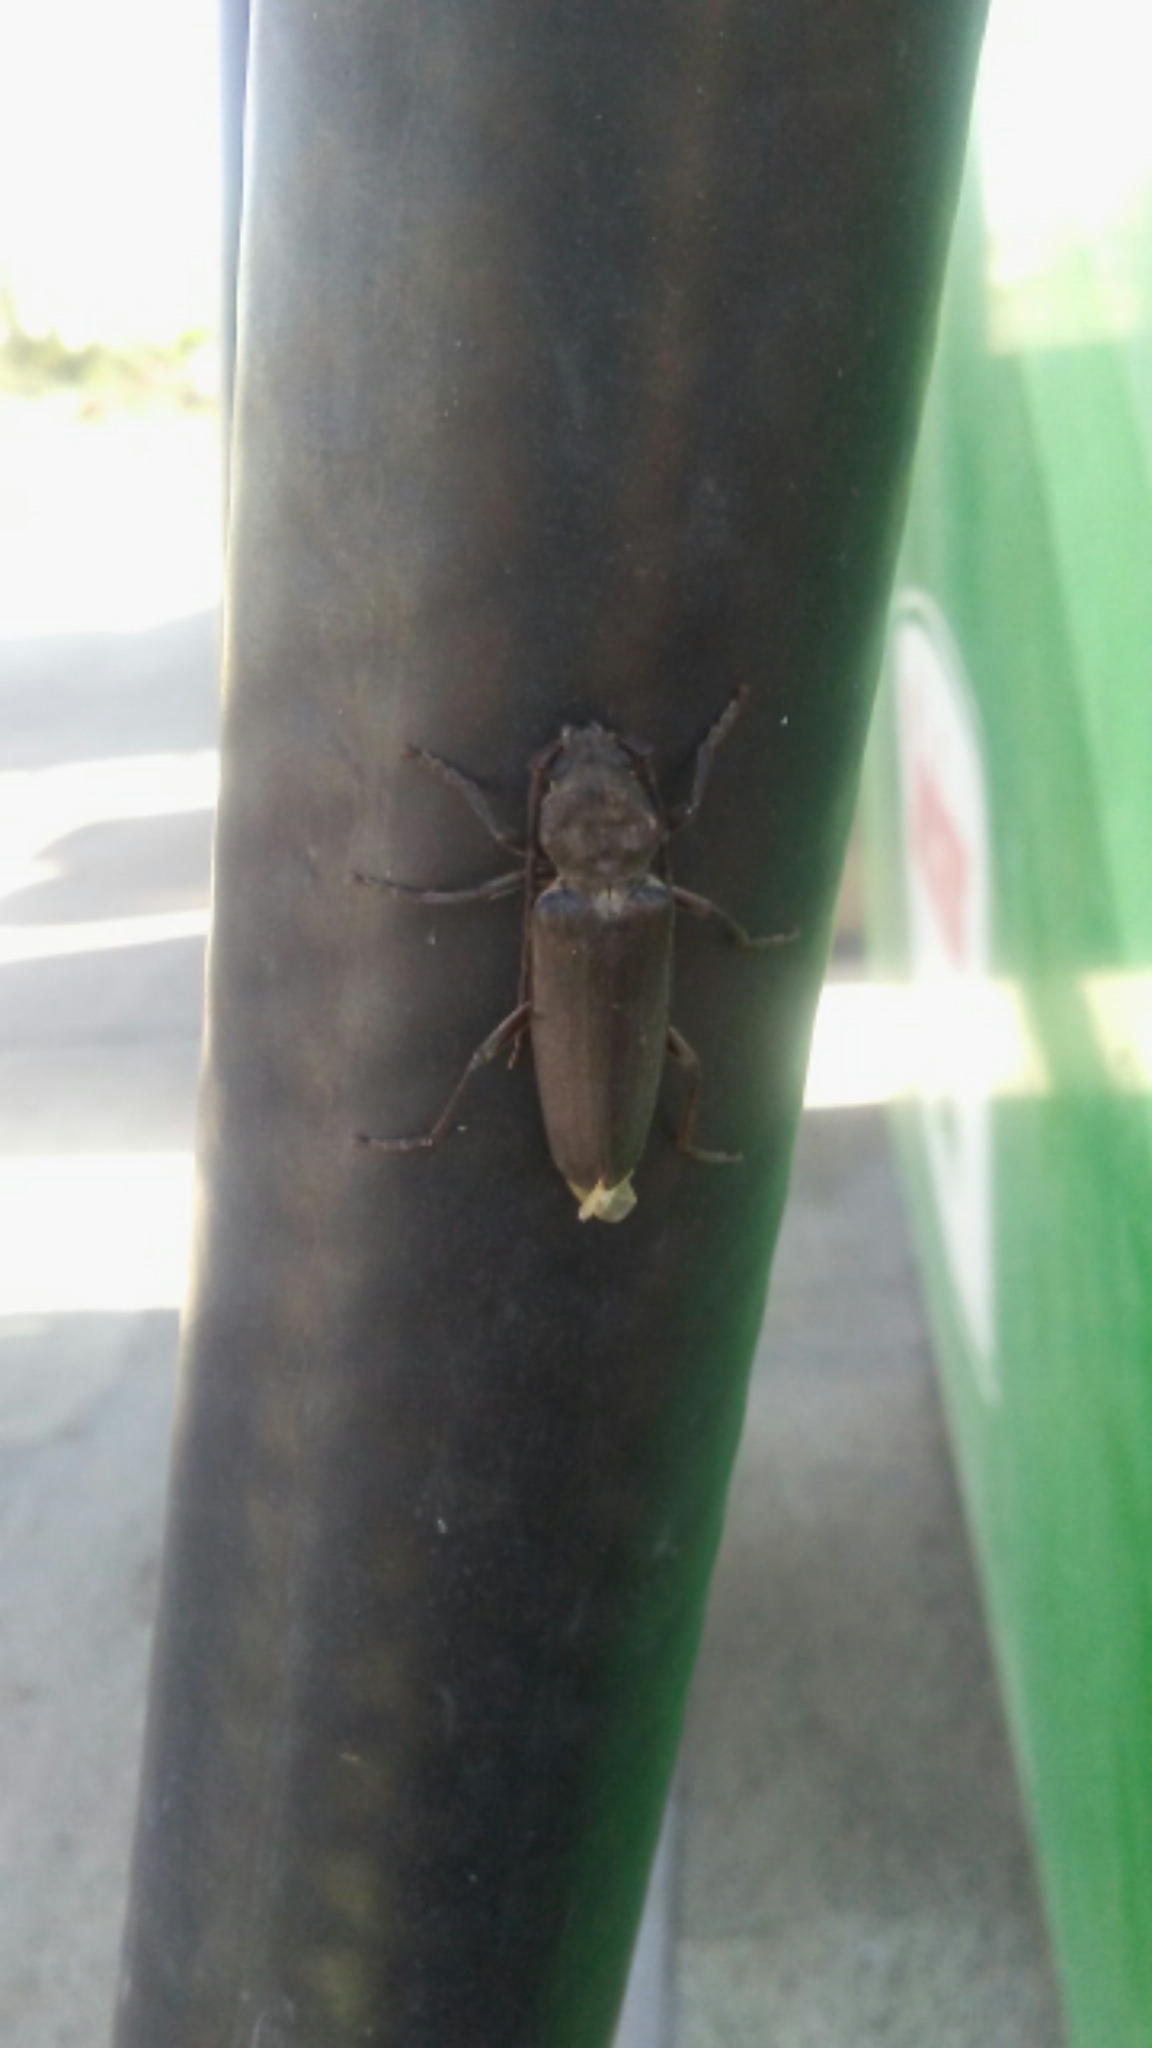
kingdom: Animalia
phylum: Arthropoda
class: Insecta
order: Coleoptera
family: Cerambycidae
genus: Arhopalus
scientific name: Arhopalus asperatus
